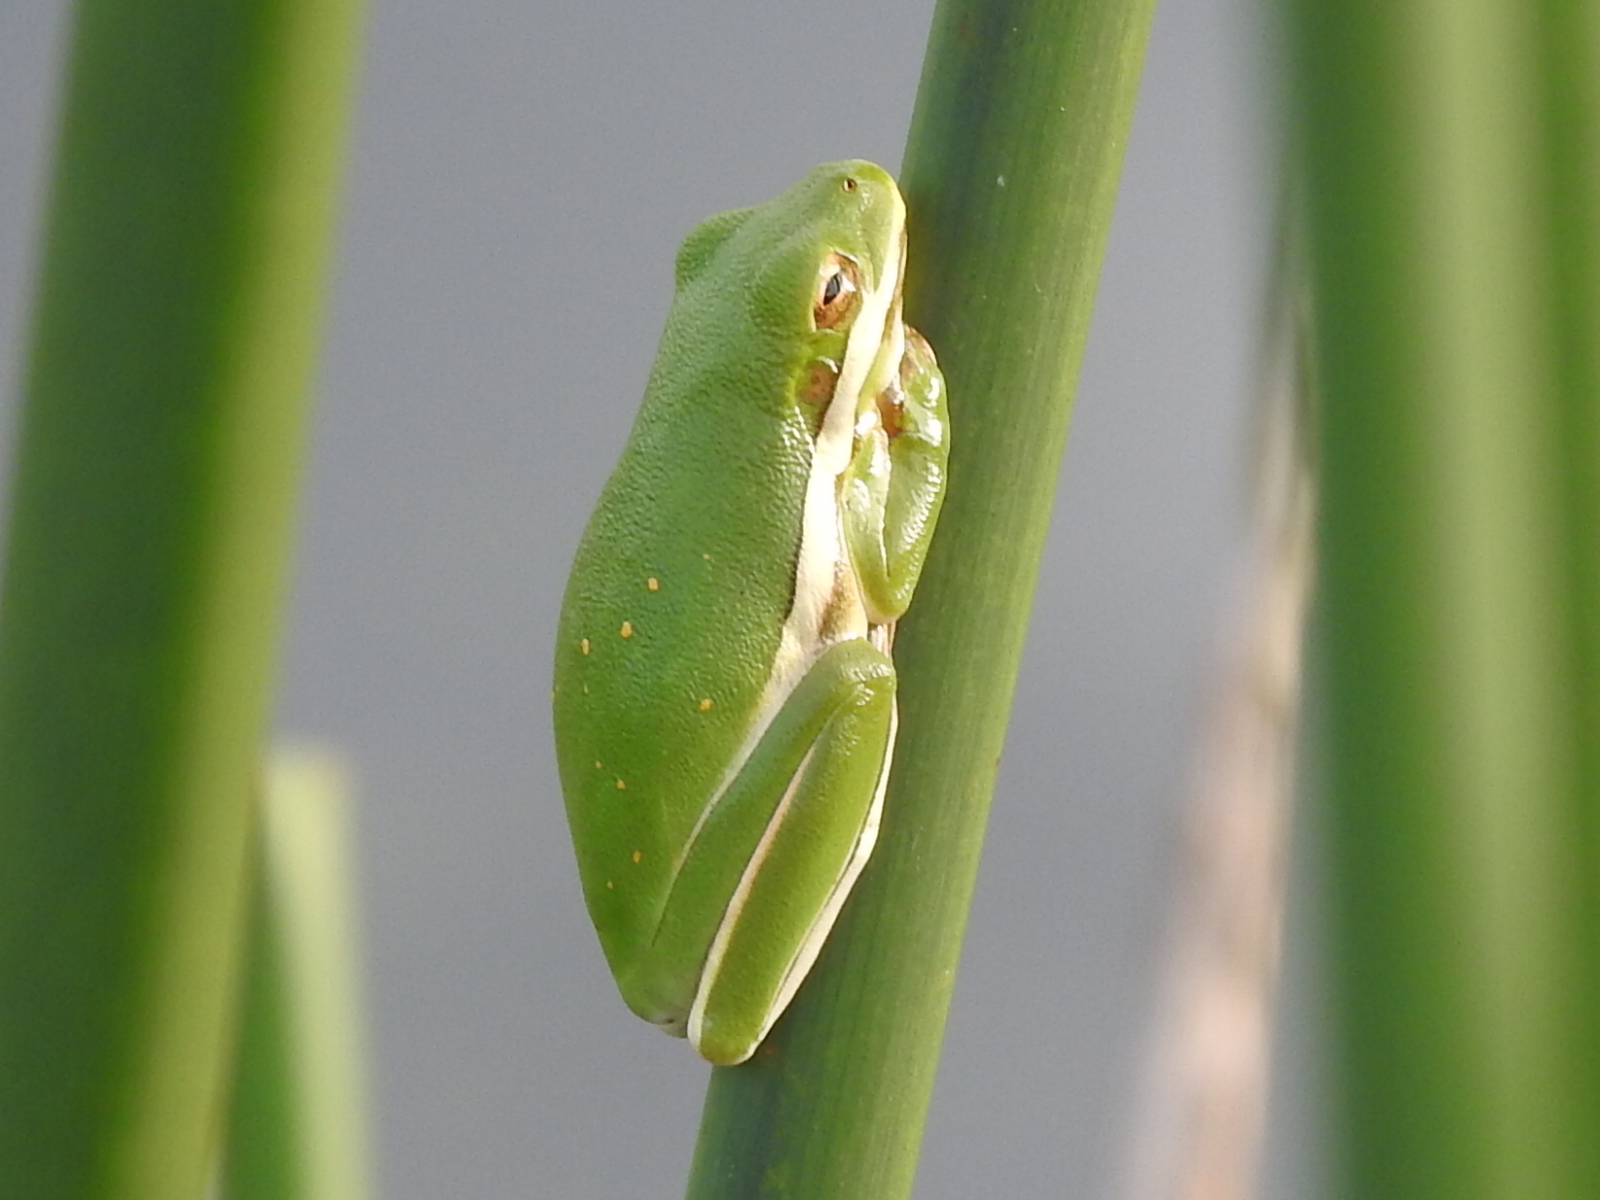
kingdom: Animalia
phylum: Chordata
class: Amphibia
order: Anura
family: Hylidae
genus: Dryophytes
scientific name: Dryophytes cinereus
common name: Green treefrog
